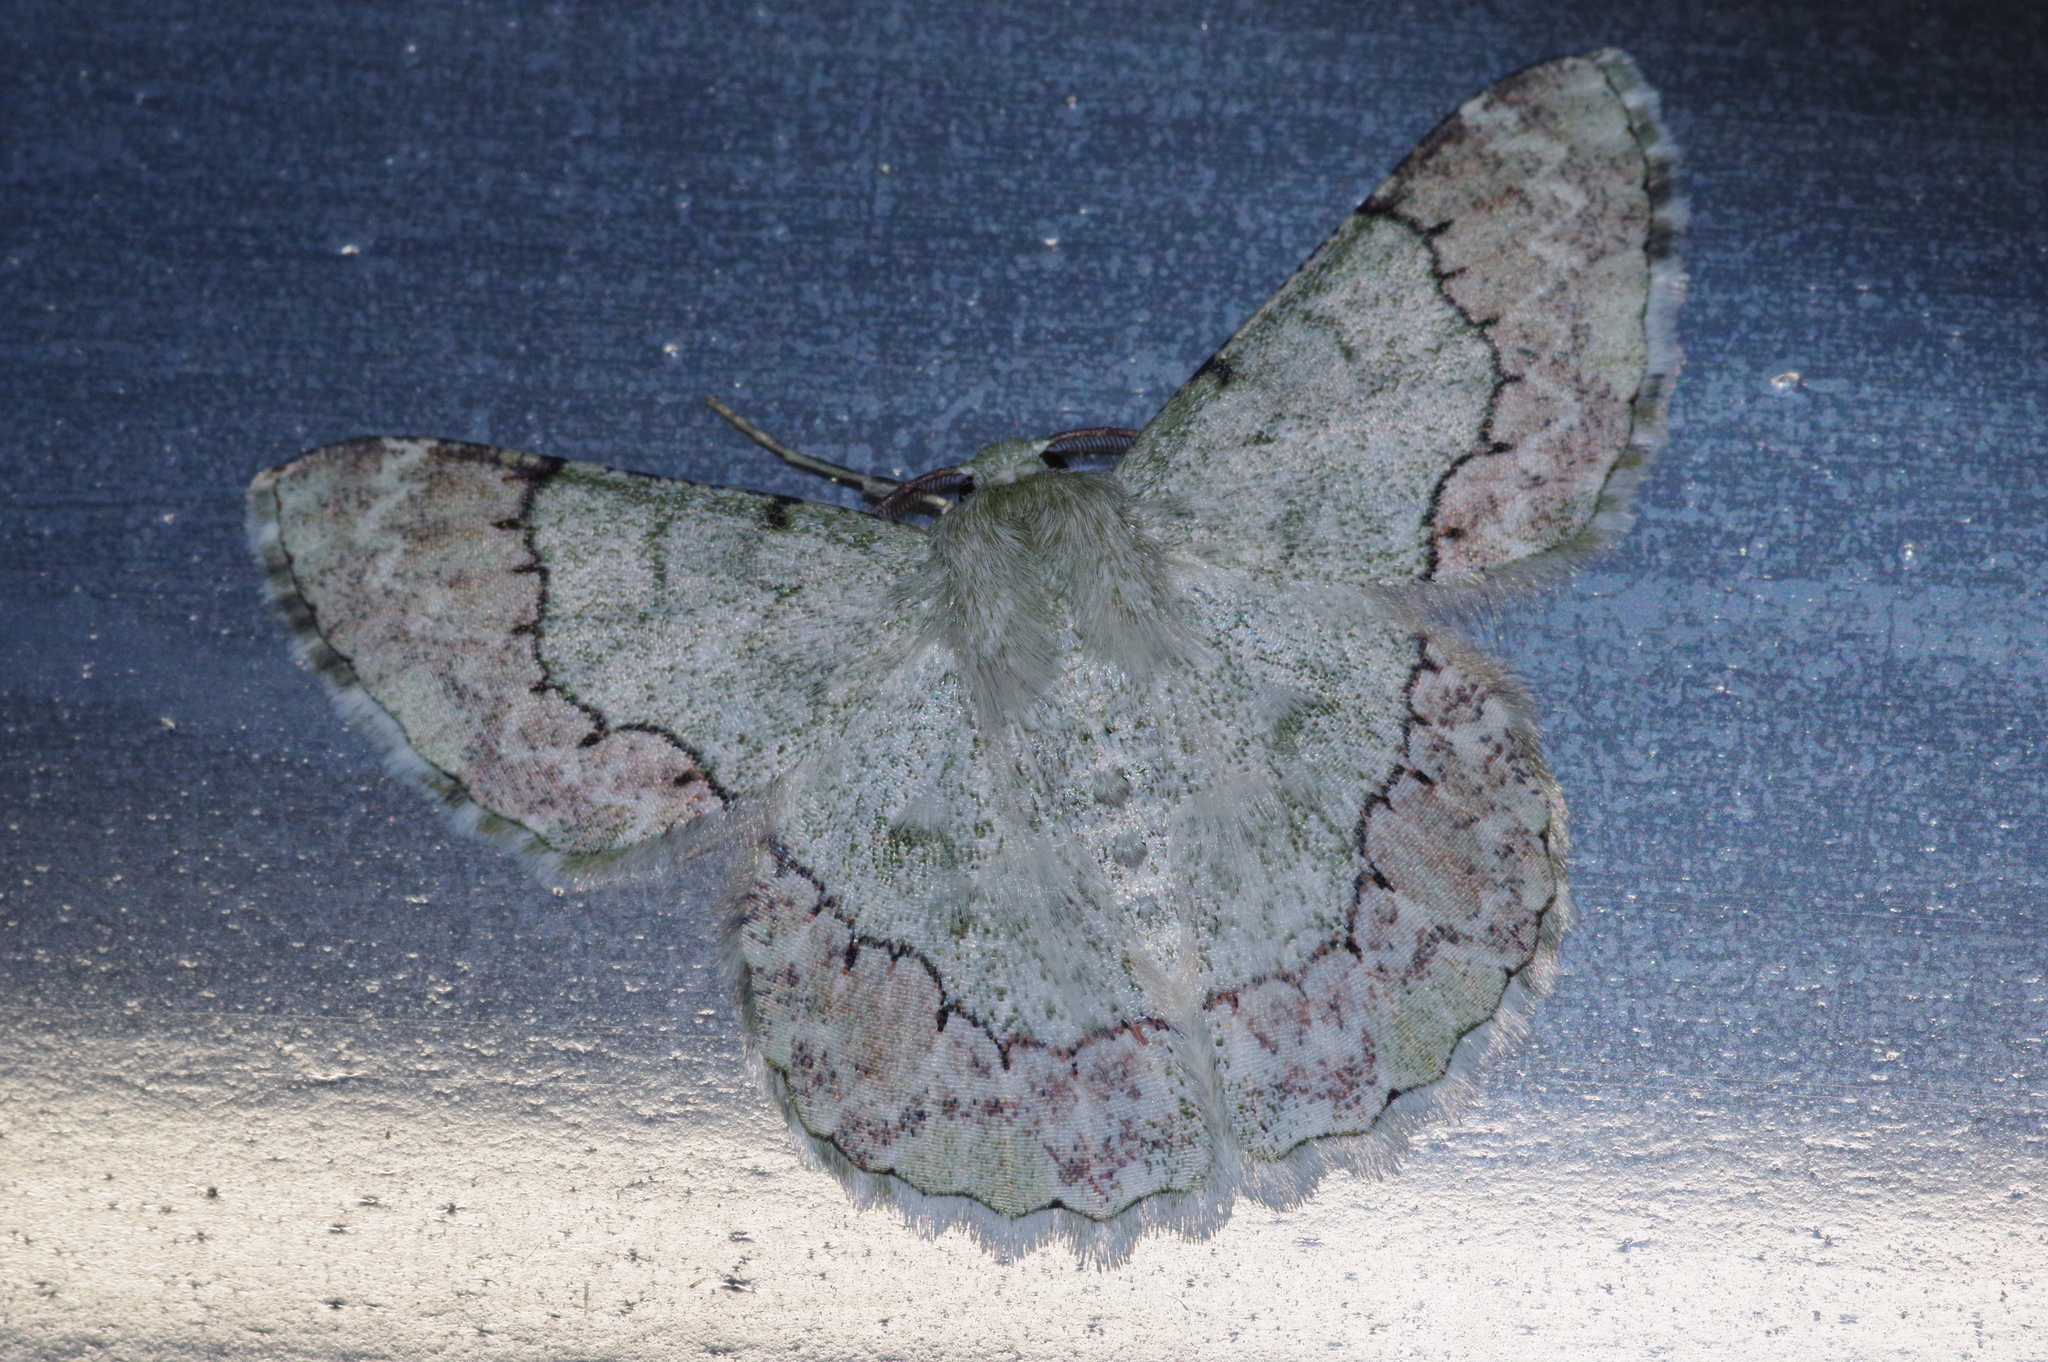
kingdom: Animalia
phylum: Arthropoda
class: Insecta
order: Lepidoptera
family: Geometridae
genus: Pingasa
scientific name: Pingasa ruginaria
